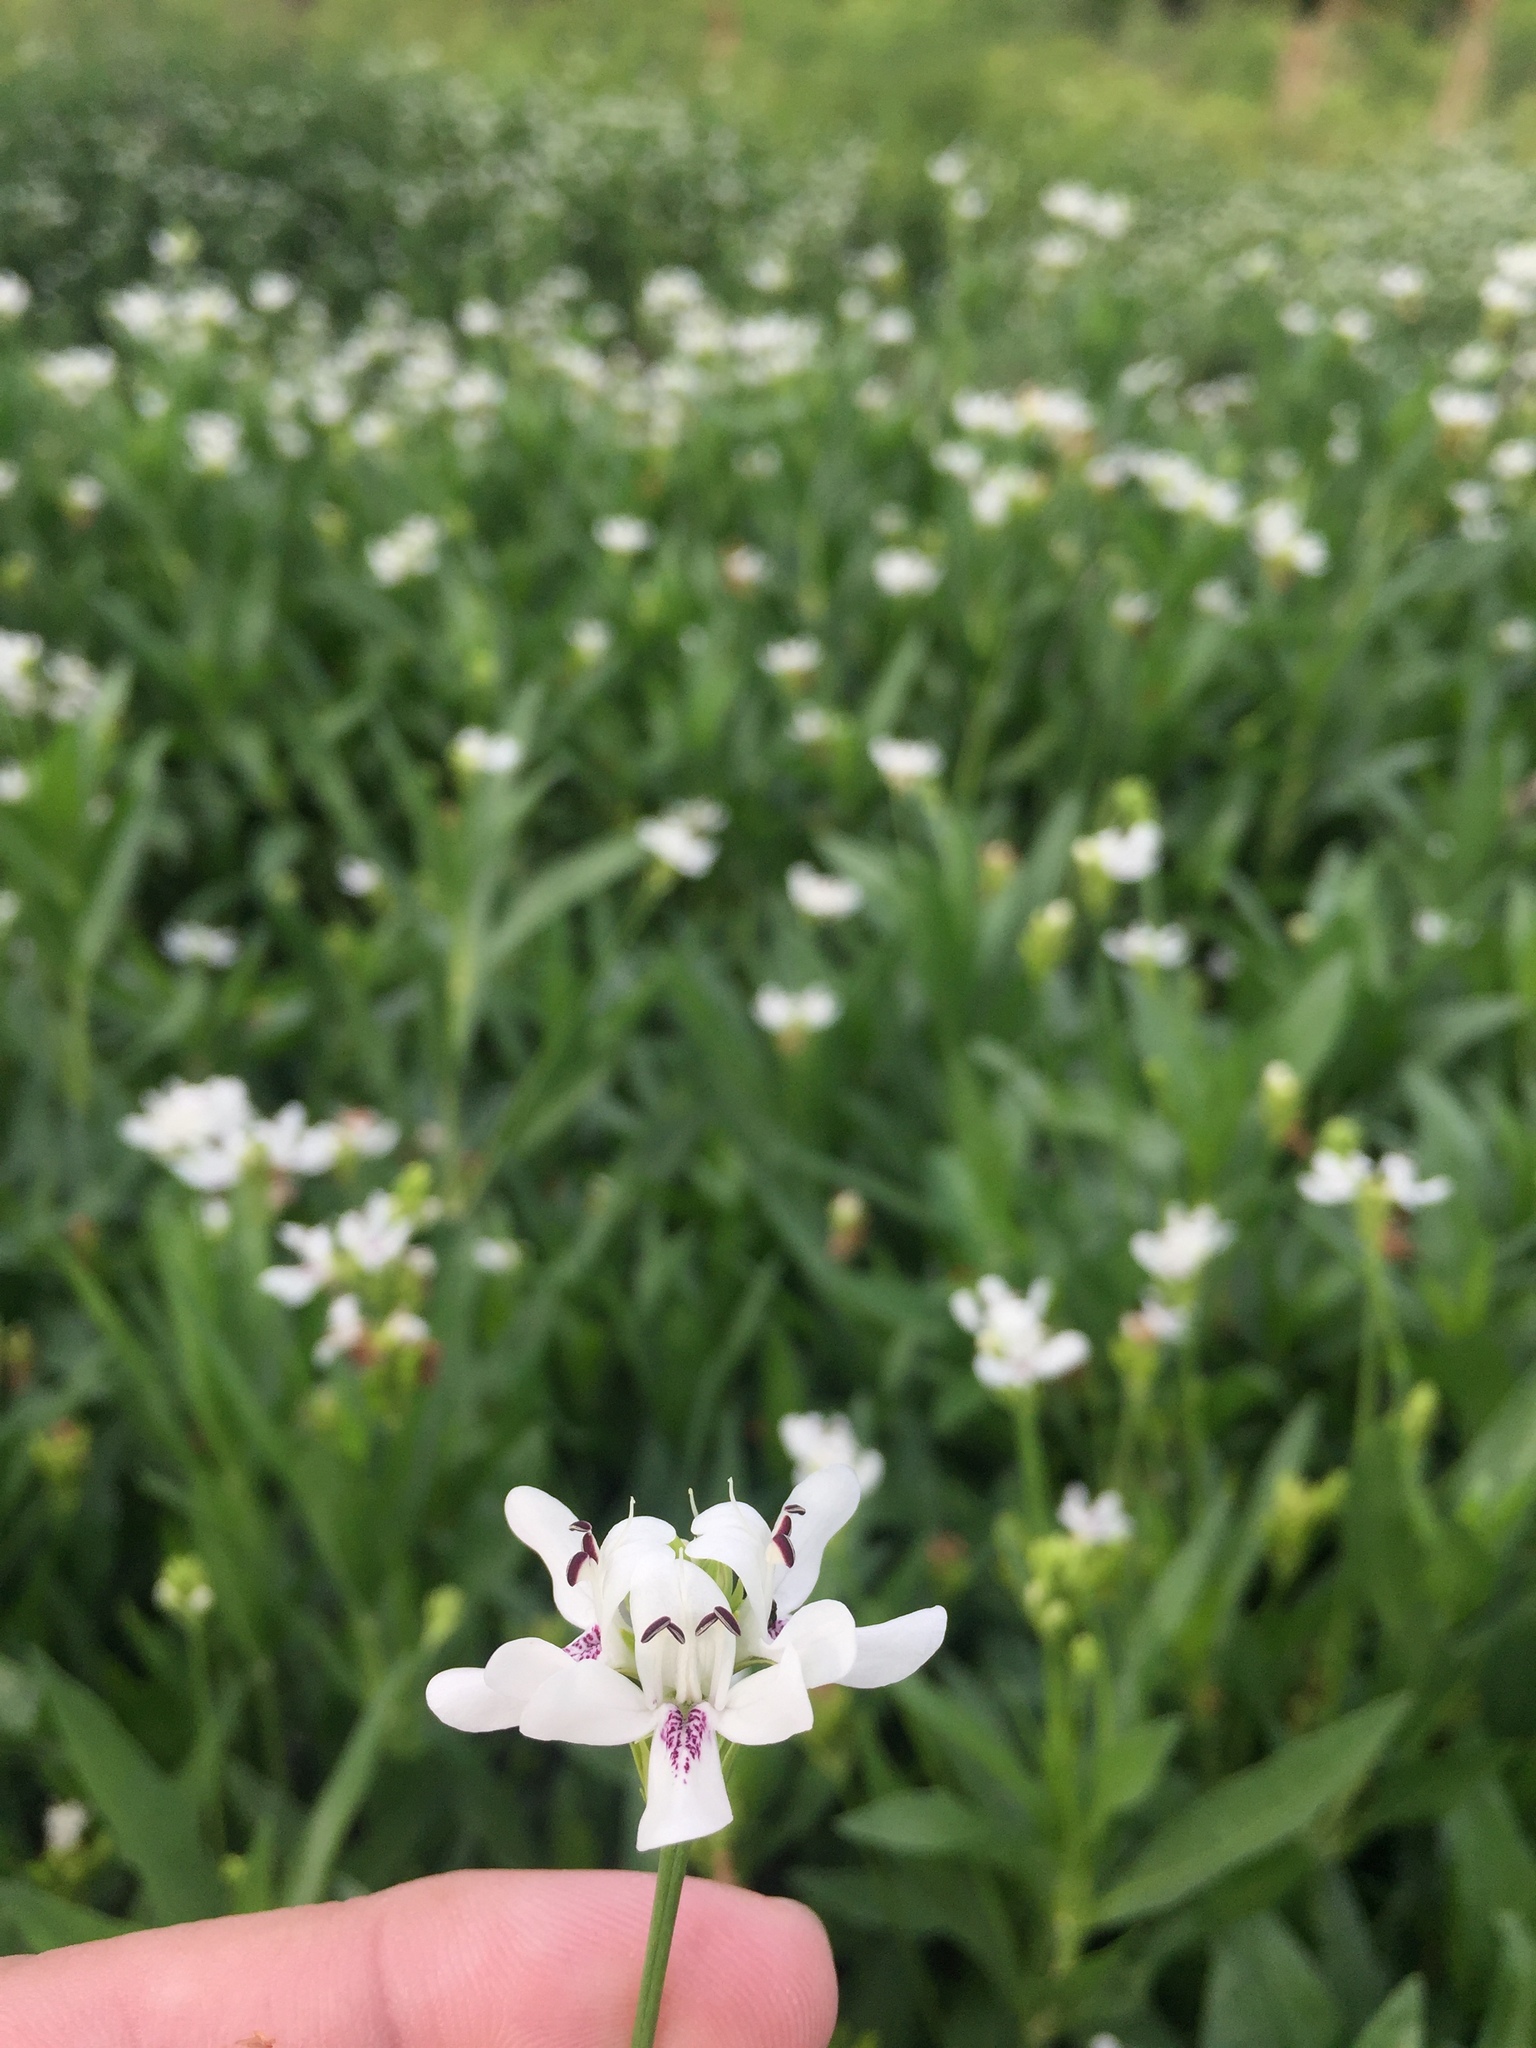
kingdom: Plantae
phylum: Tracheophyta
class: Magnoliopsida
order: Lamiales
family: Acanthaceae
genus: Dianthera
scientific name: Dianthera americana
